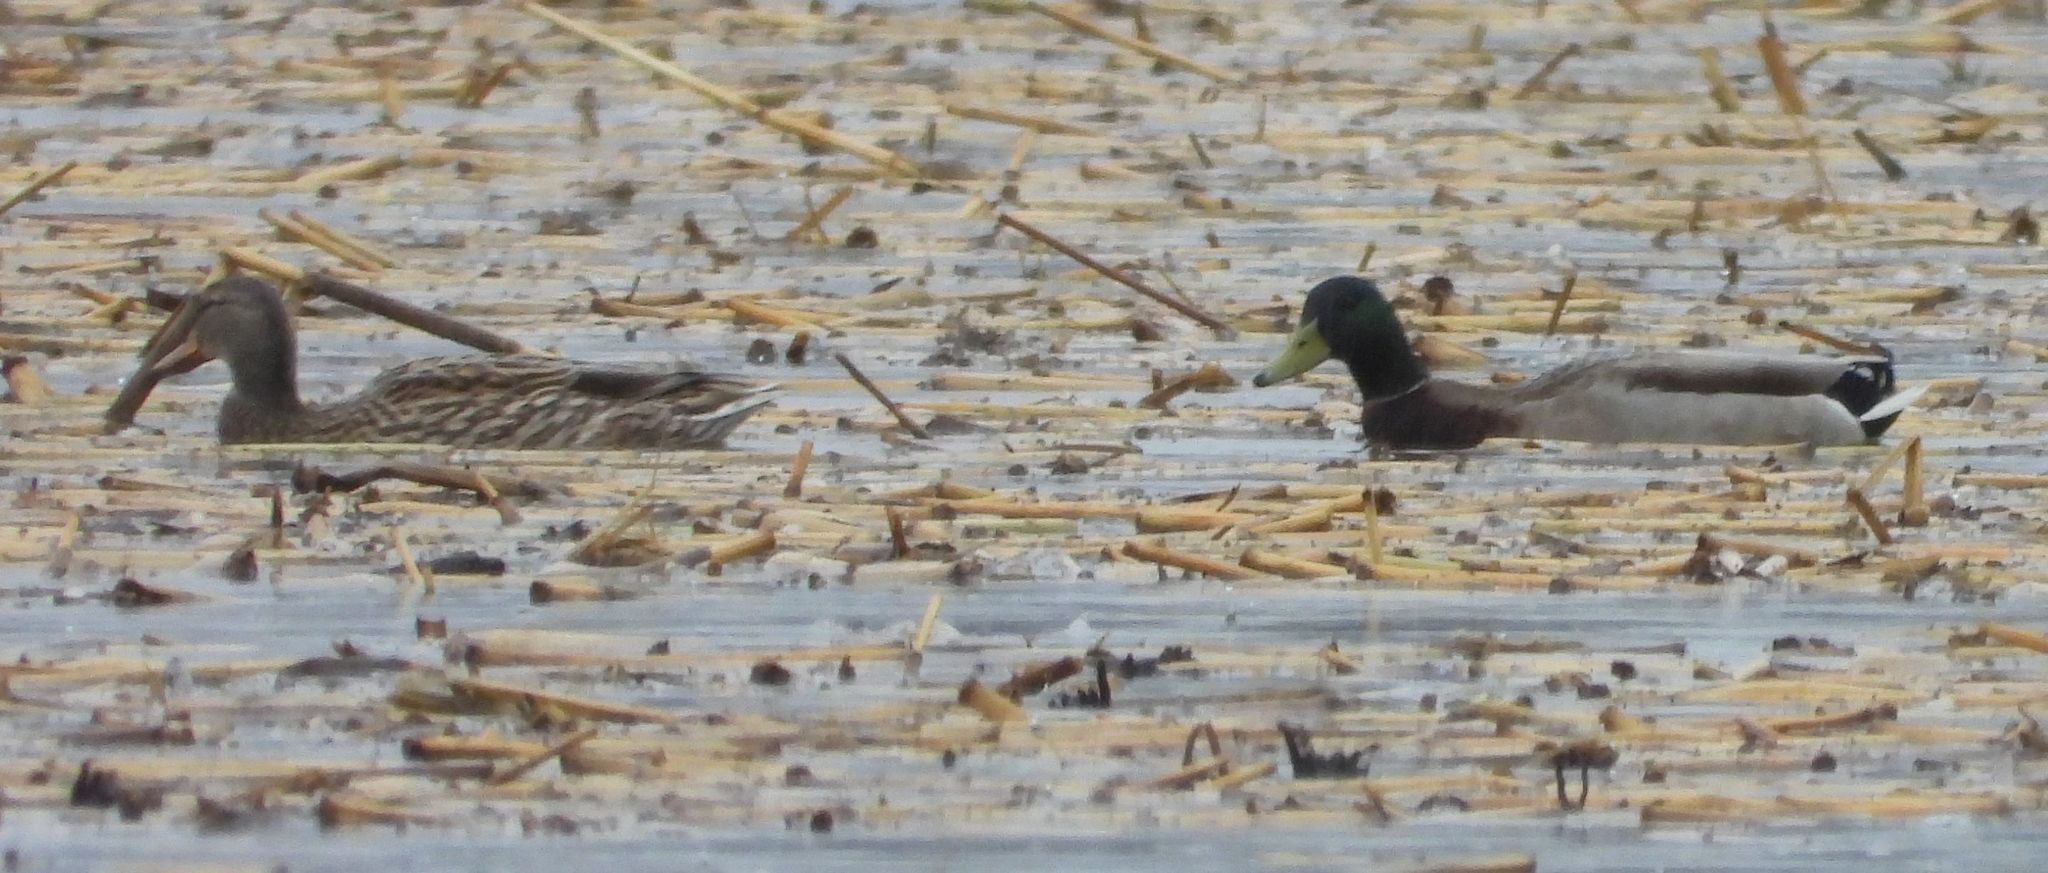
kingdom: Animalia
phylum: Chordata
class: Aves
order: Anseriformes
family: Anatidae
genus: Anas
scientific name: Anas platyrhynchos
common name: Mallard
